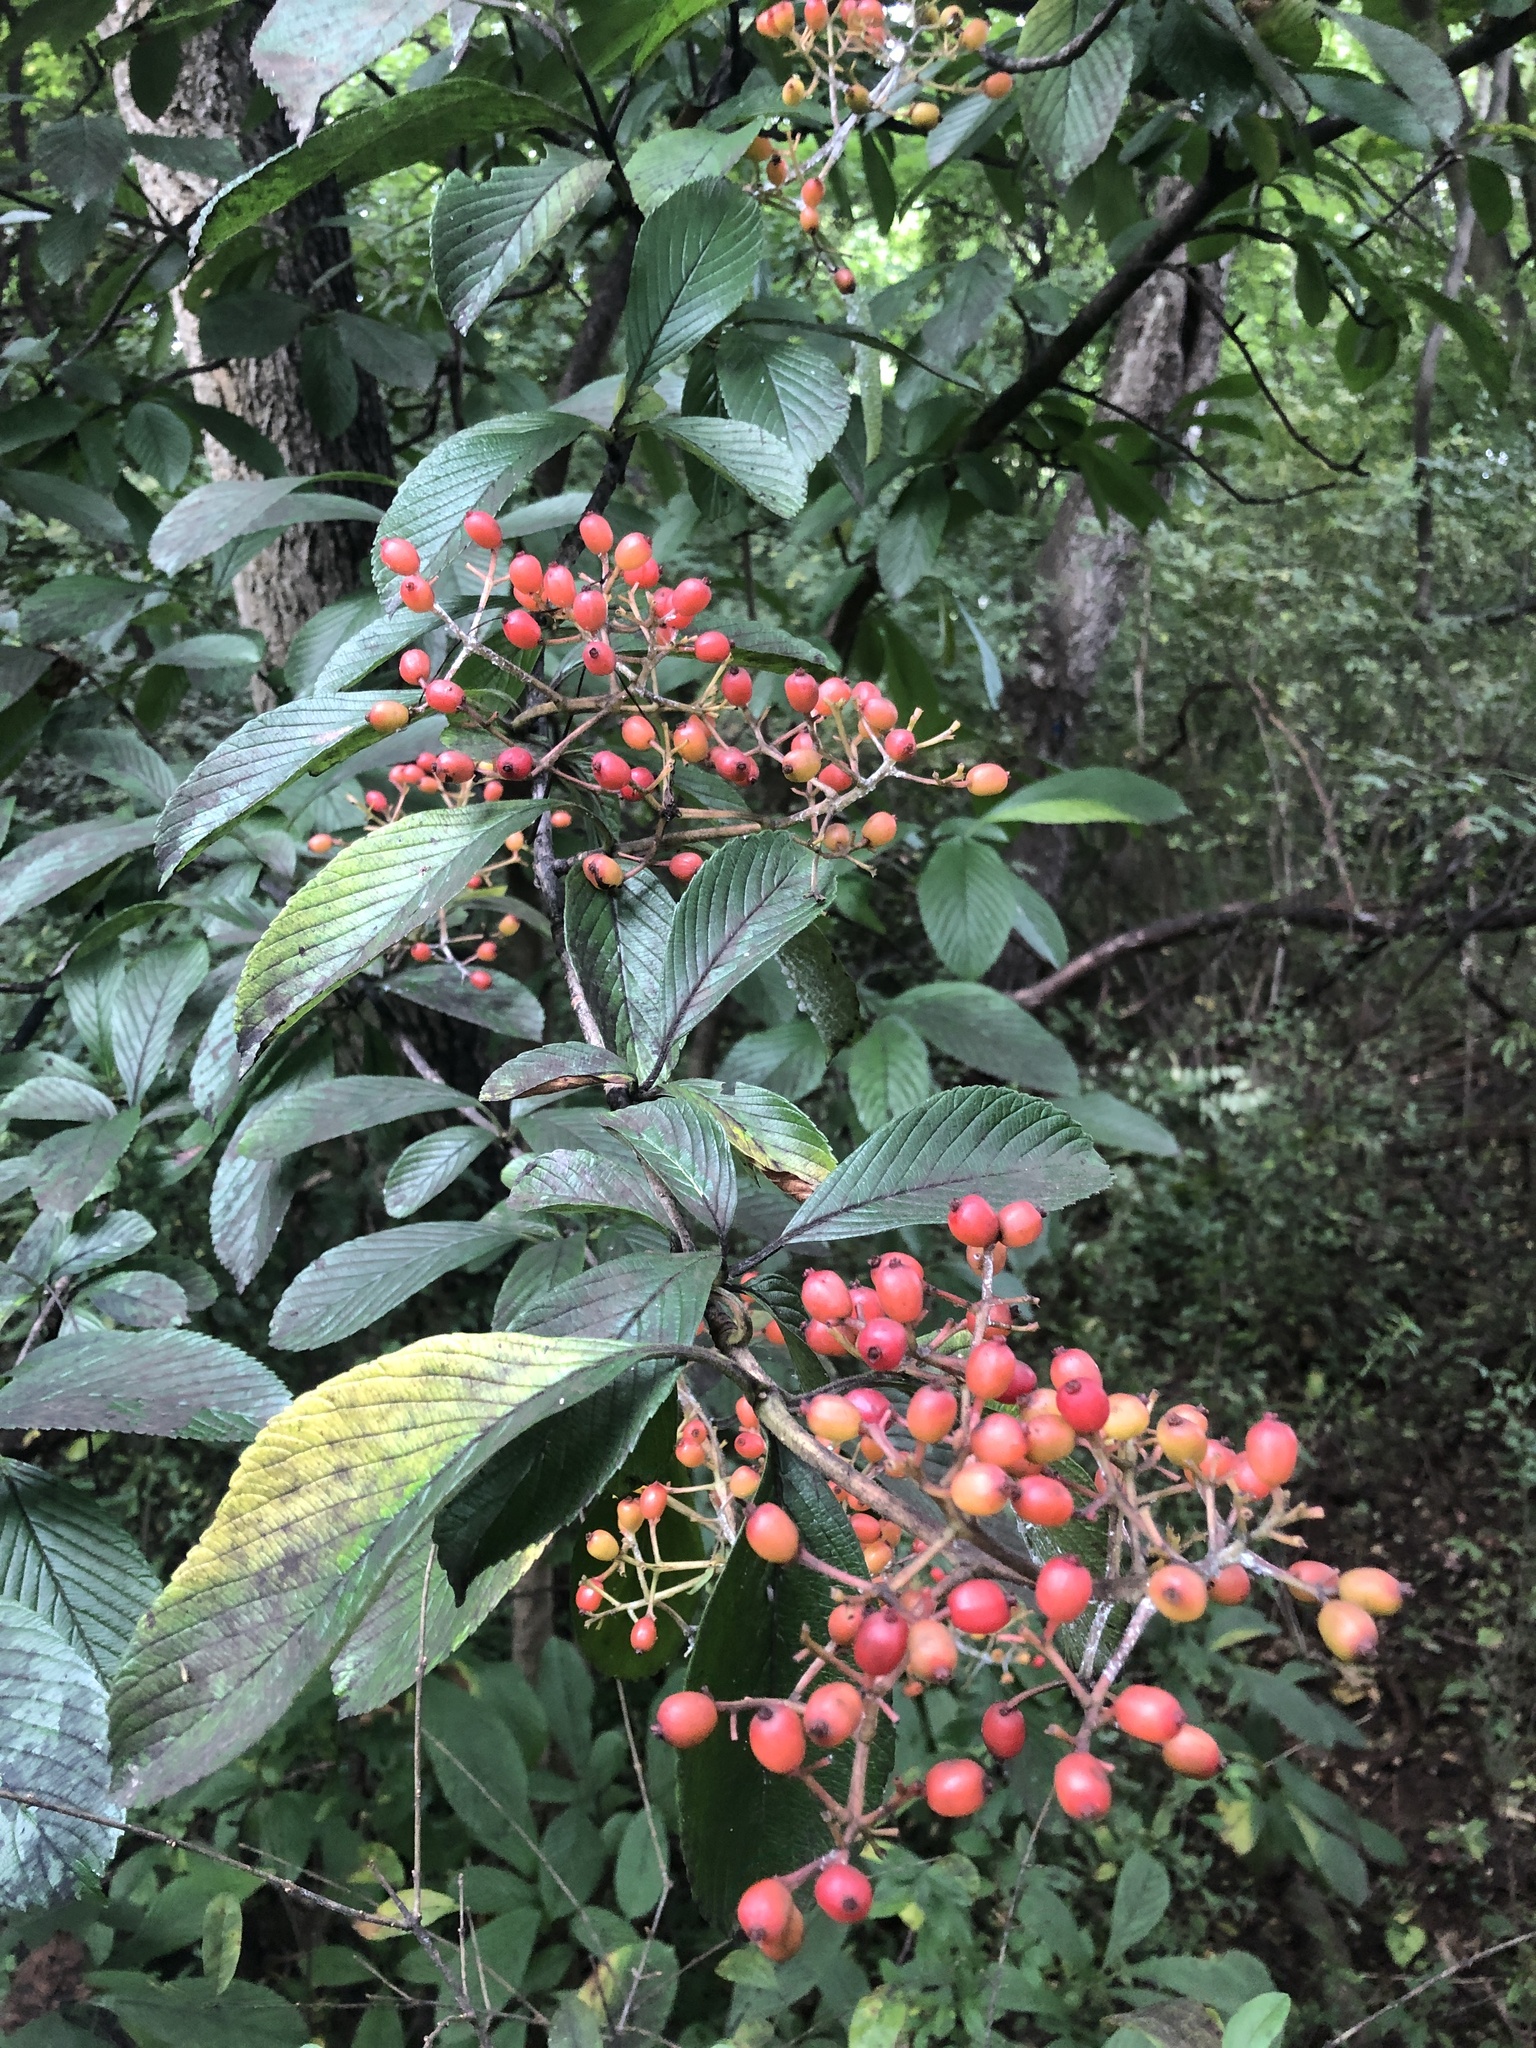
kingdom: Plantae
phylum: Tracheophyta
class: Magnoliopsida
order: Dipsacales
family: Viburnaceae
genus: Viburnum
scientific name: Viburnum sieboldii
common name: Siebold's arrowwood
